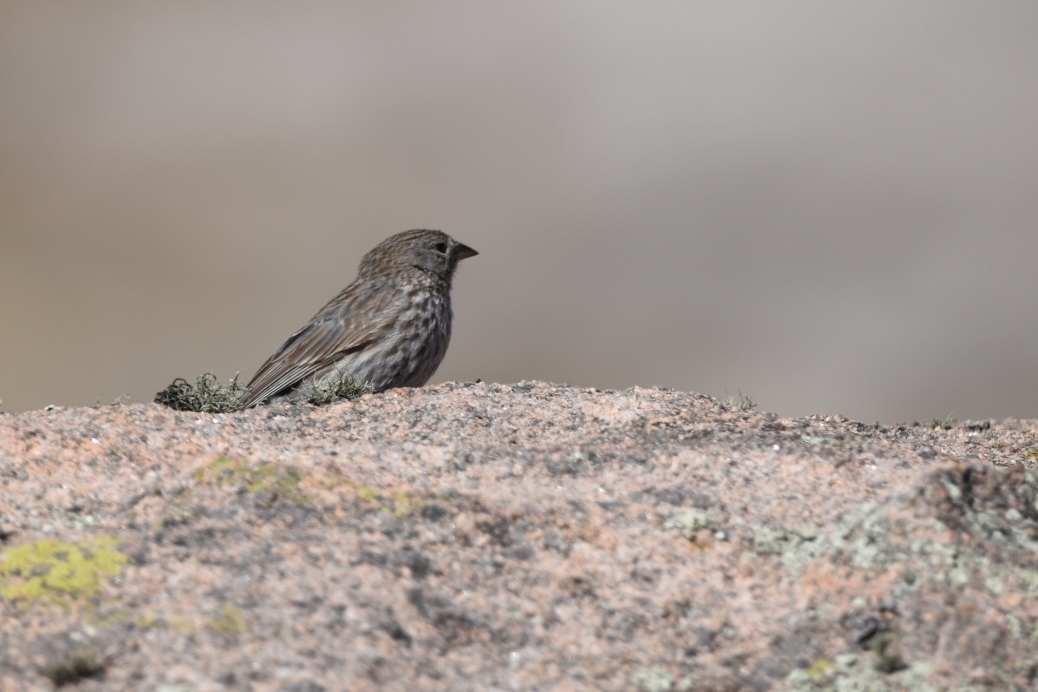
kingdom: Animalia
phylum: Chordata
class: Aves
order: Passeriformes
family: Thraupidae
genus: Geospizopsis
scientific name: Geospizopsis unicolor
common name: Plumbeous sierra-finch
